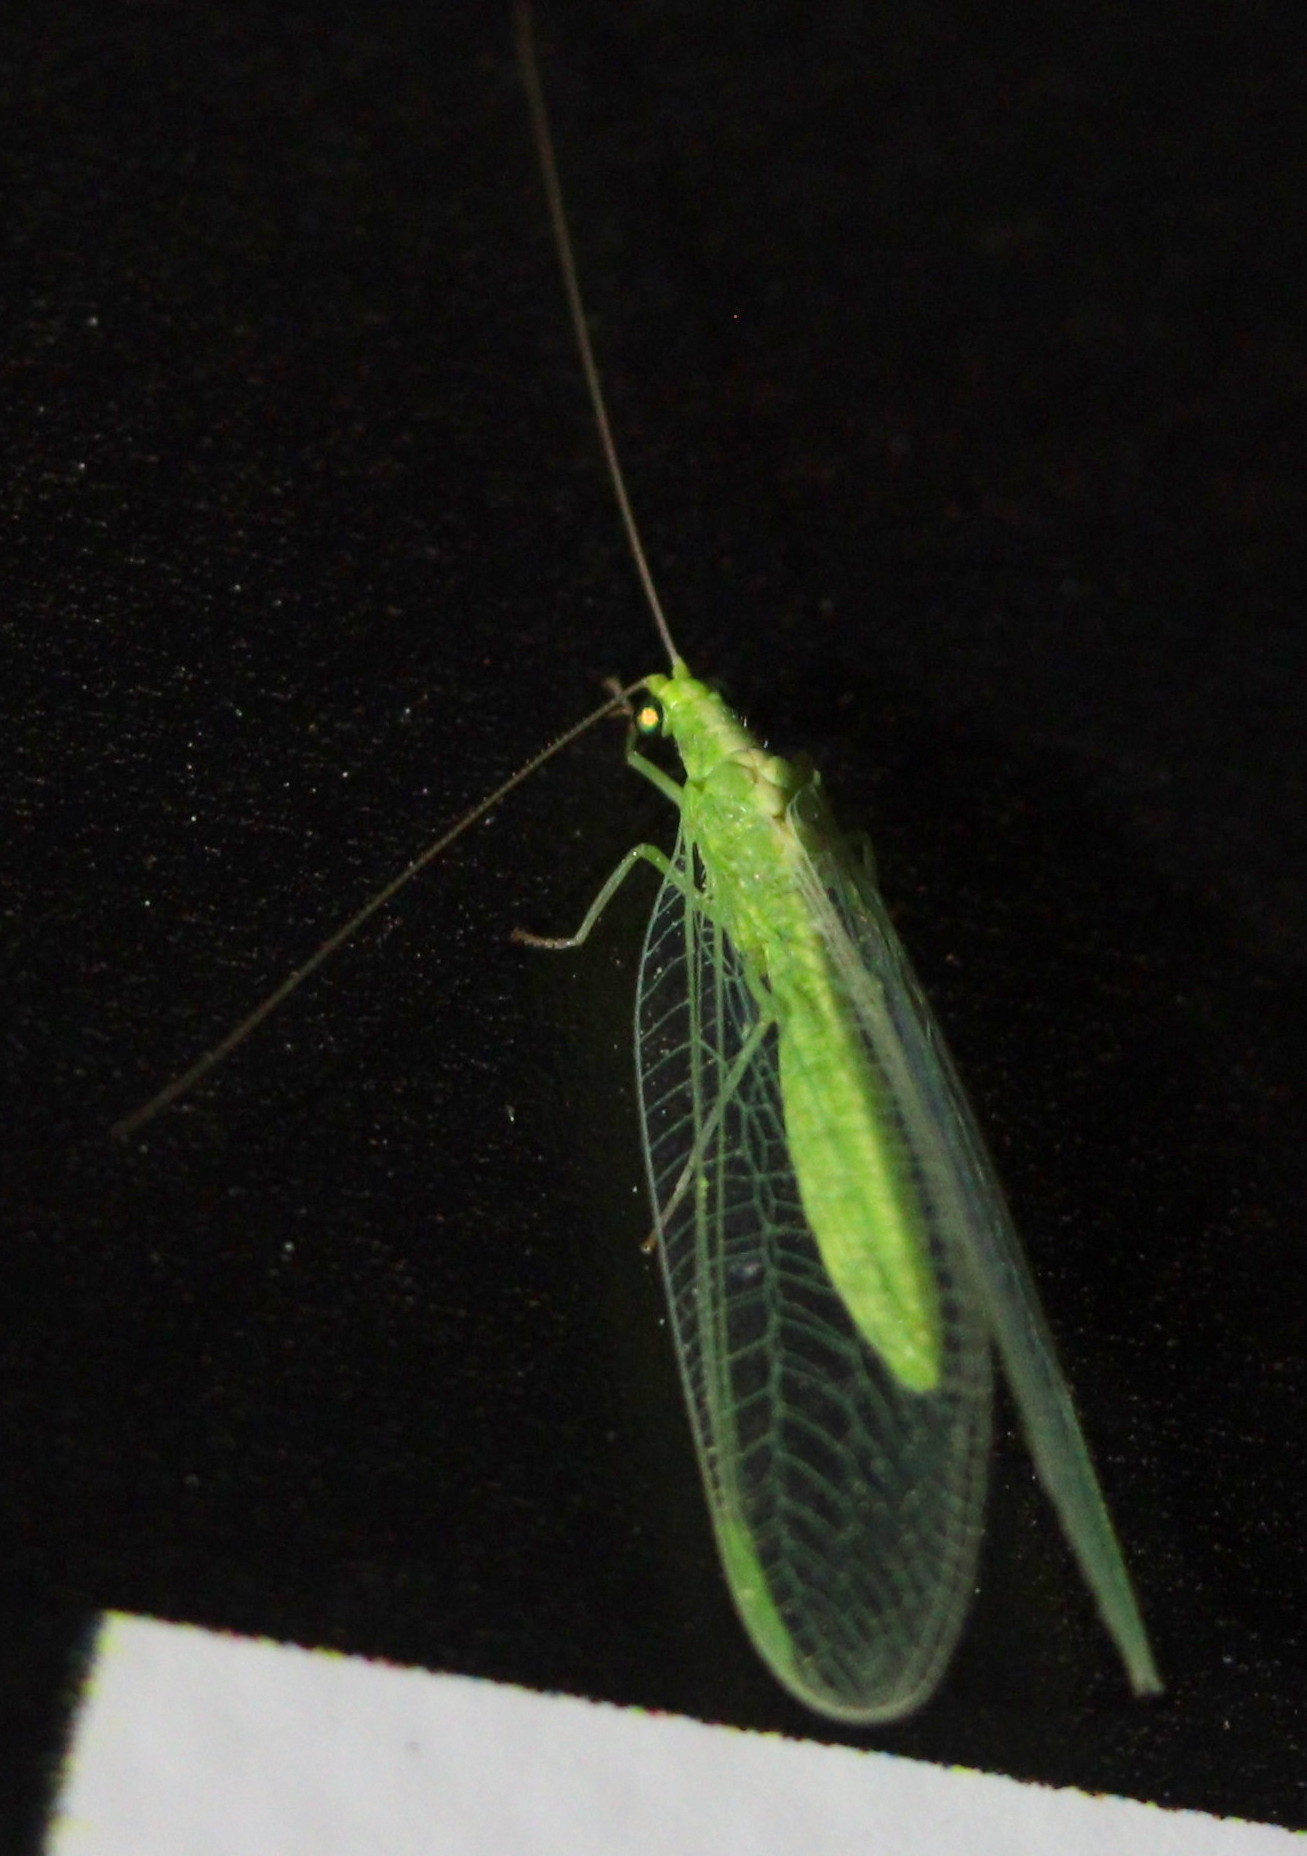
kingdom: Animalia
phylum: Arthropoda
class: Insecta
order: Neuroptera
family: Chrysopidae
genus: Chrysoperla
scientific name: Chrysoperla
